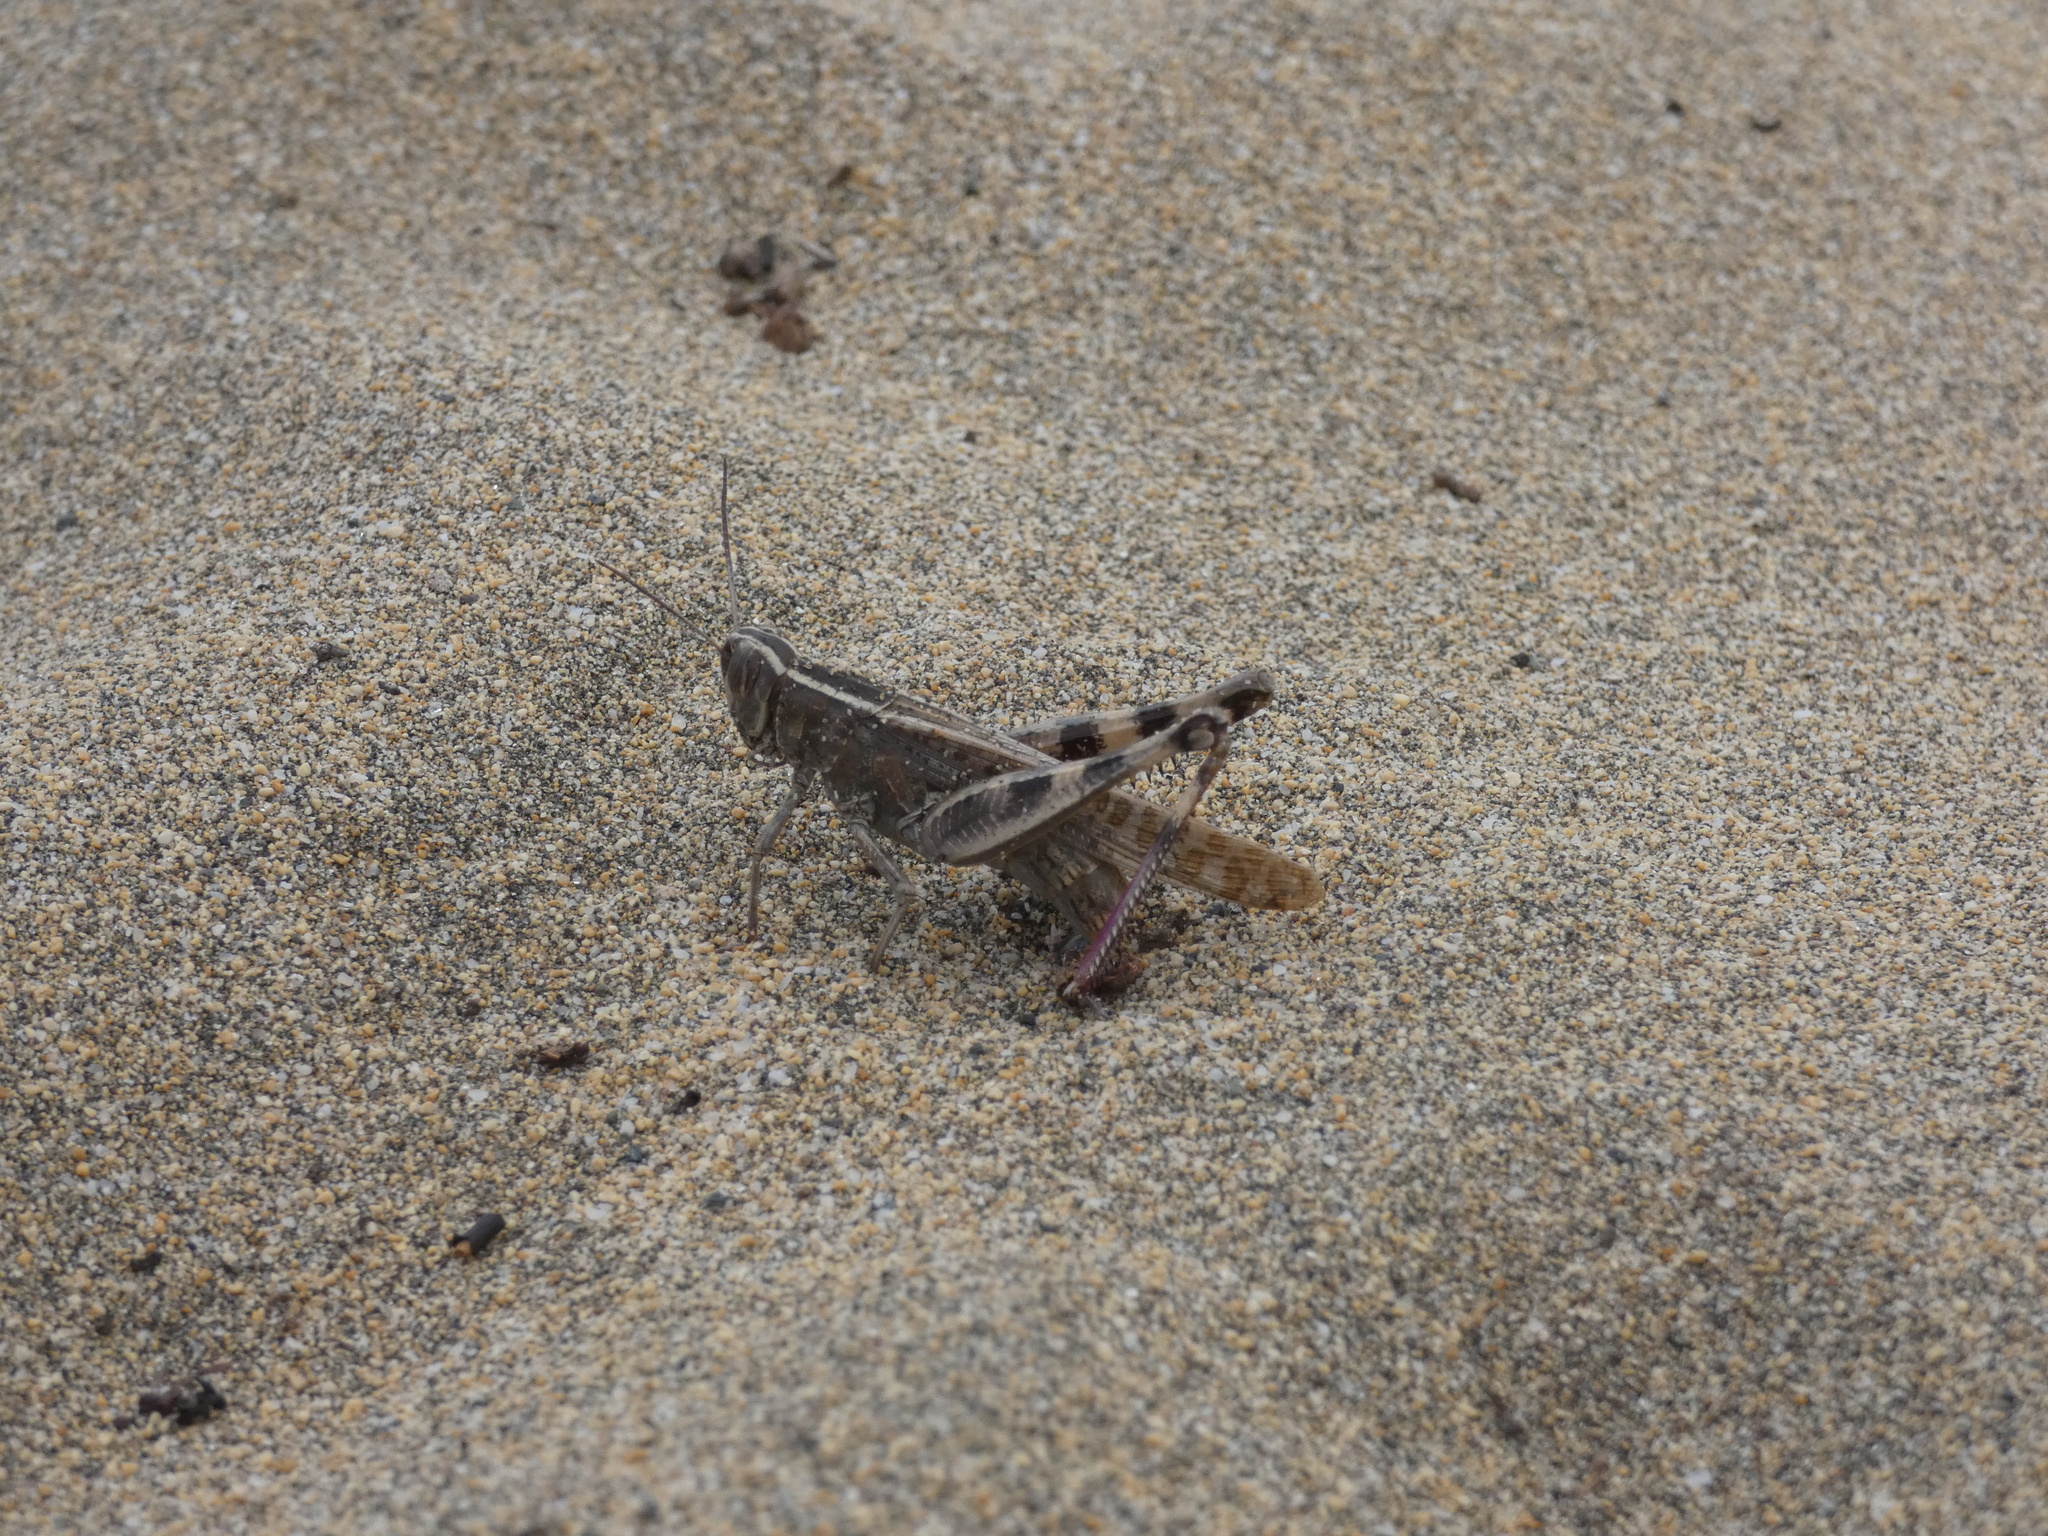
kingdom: Animalia
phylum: Arthropoda
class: Insecta
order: Orthoptera
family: Acrididae
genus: Heteracris
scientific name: Heteracris littoralis
